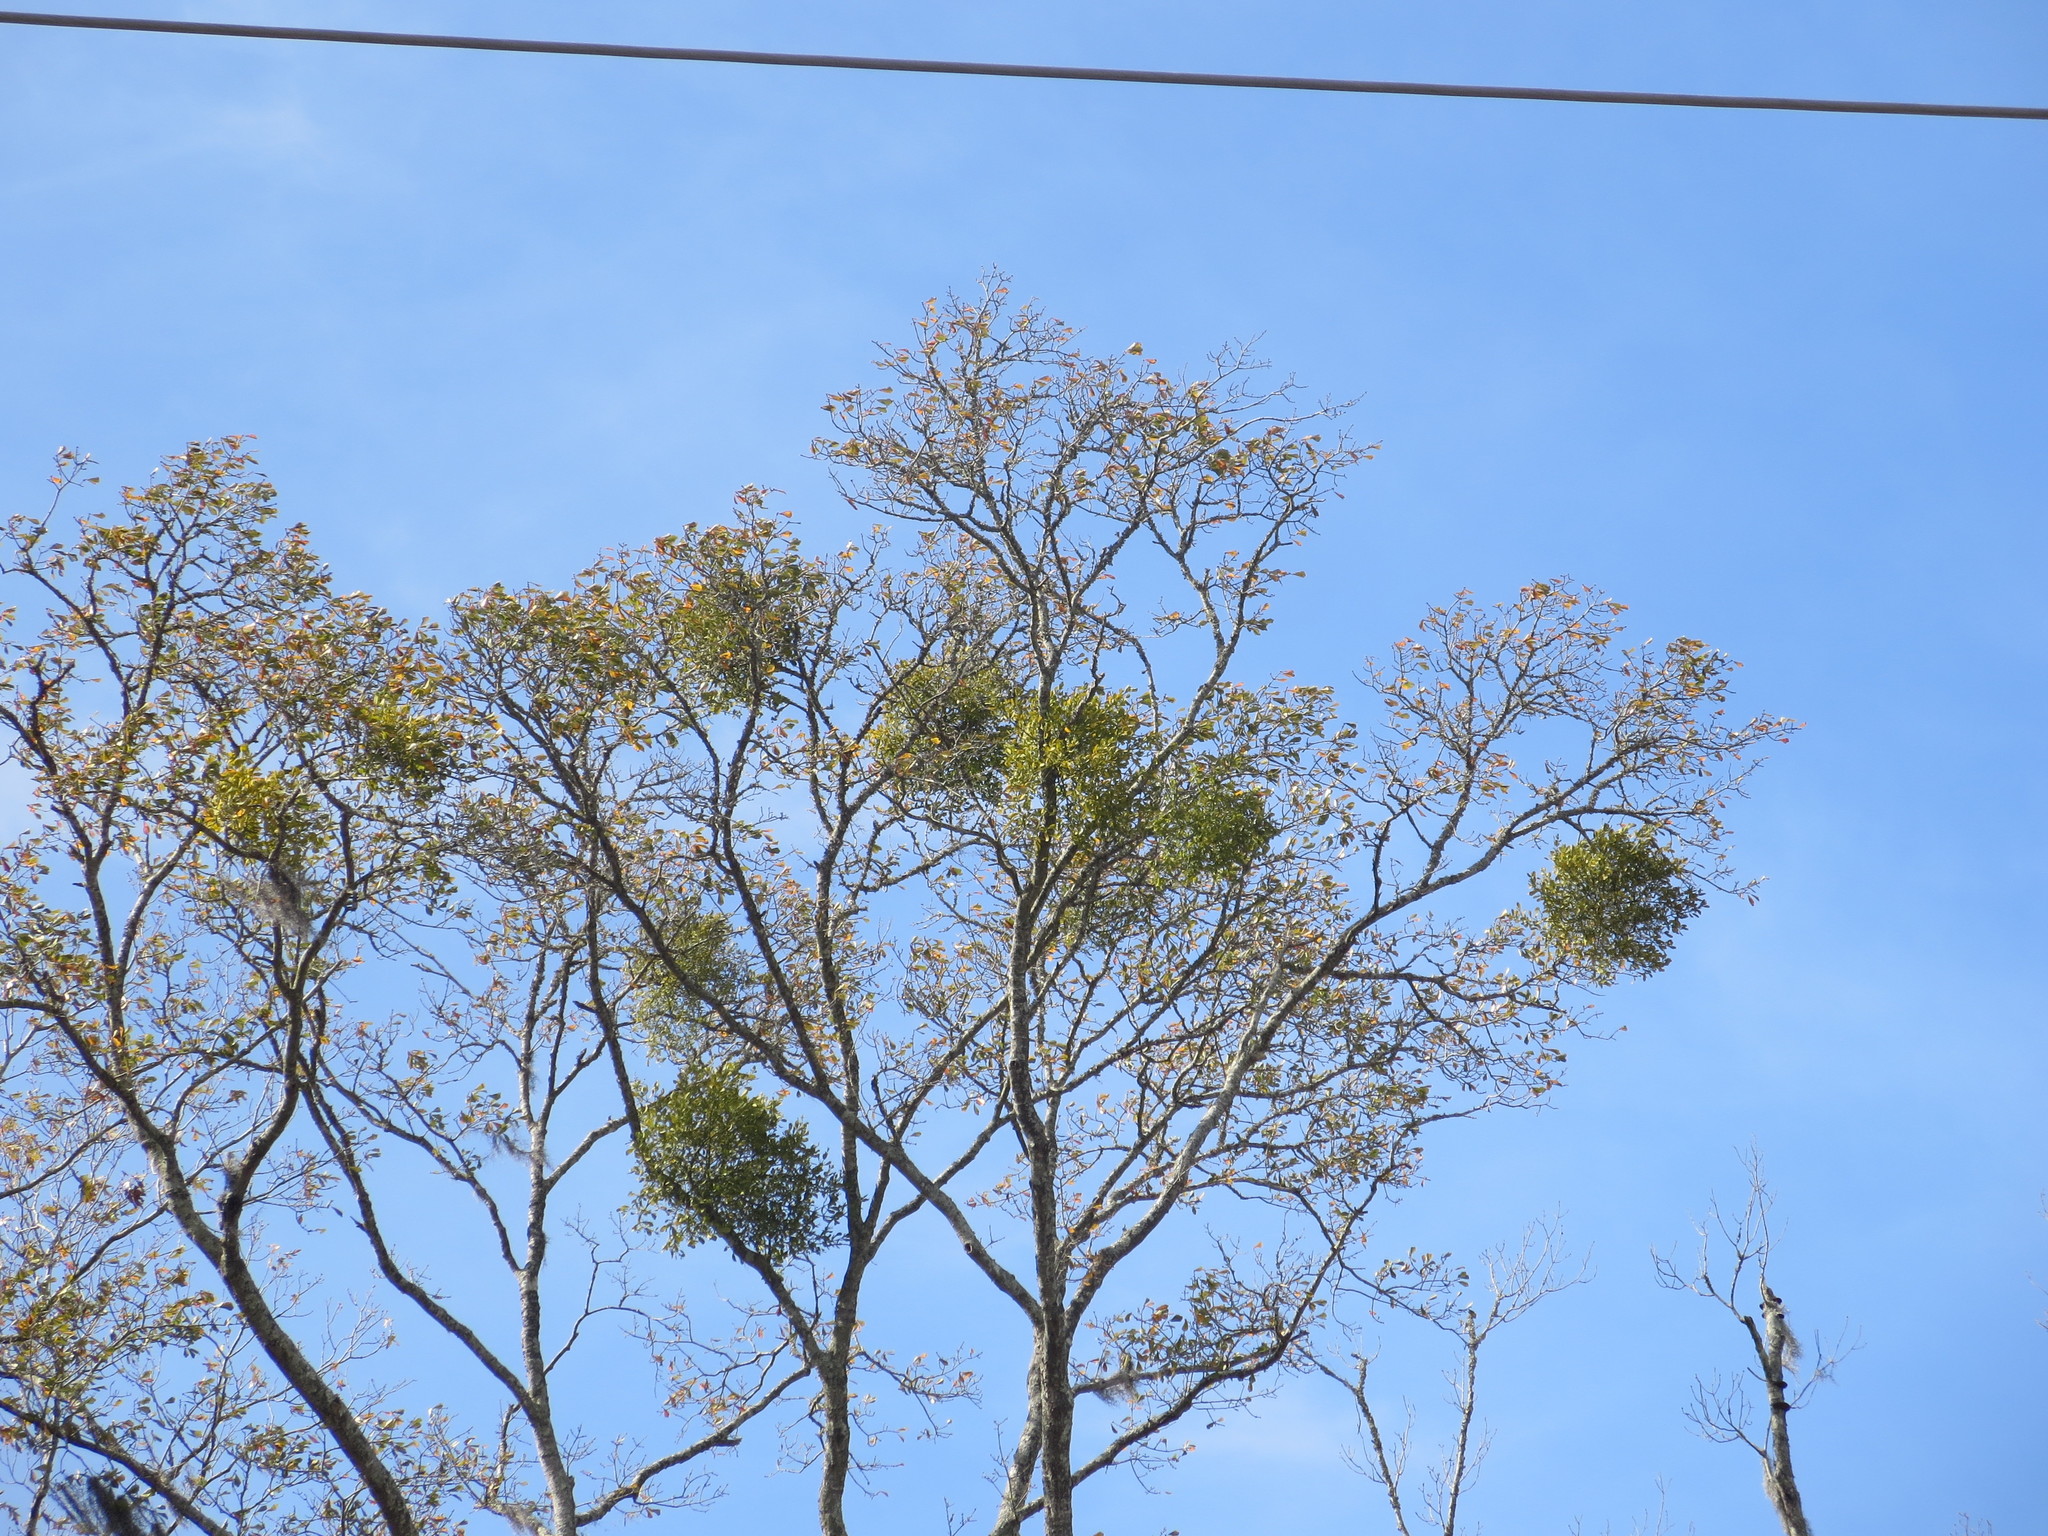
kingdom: Plantae
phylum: Tracheophyta
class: Magnoliopsida
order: Santalales
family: Viscaceae
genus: Phoradendron
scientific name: Phoradendron leucarpum
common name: Pacific mistletoe
